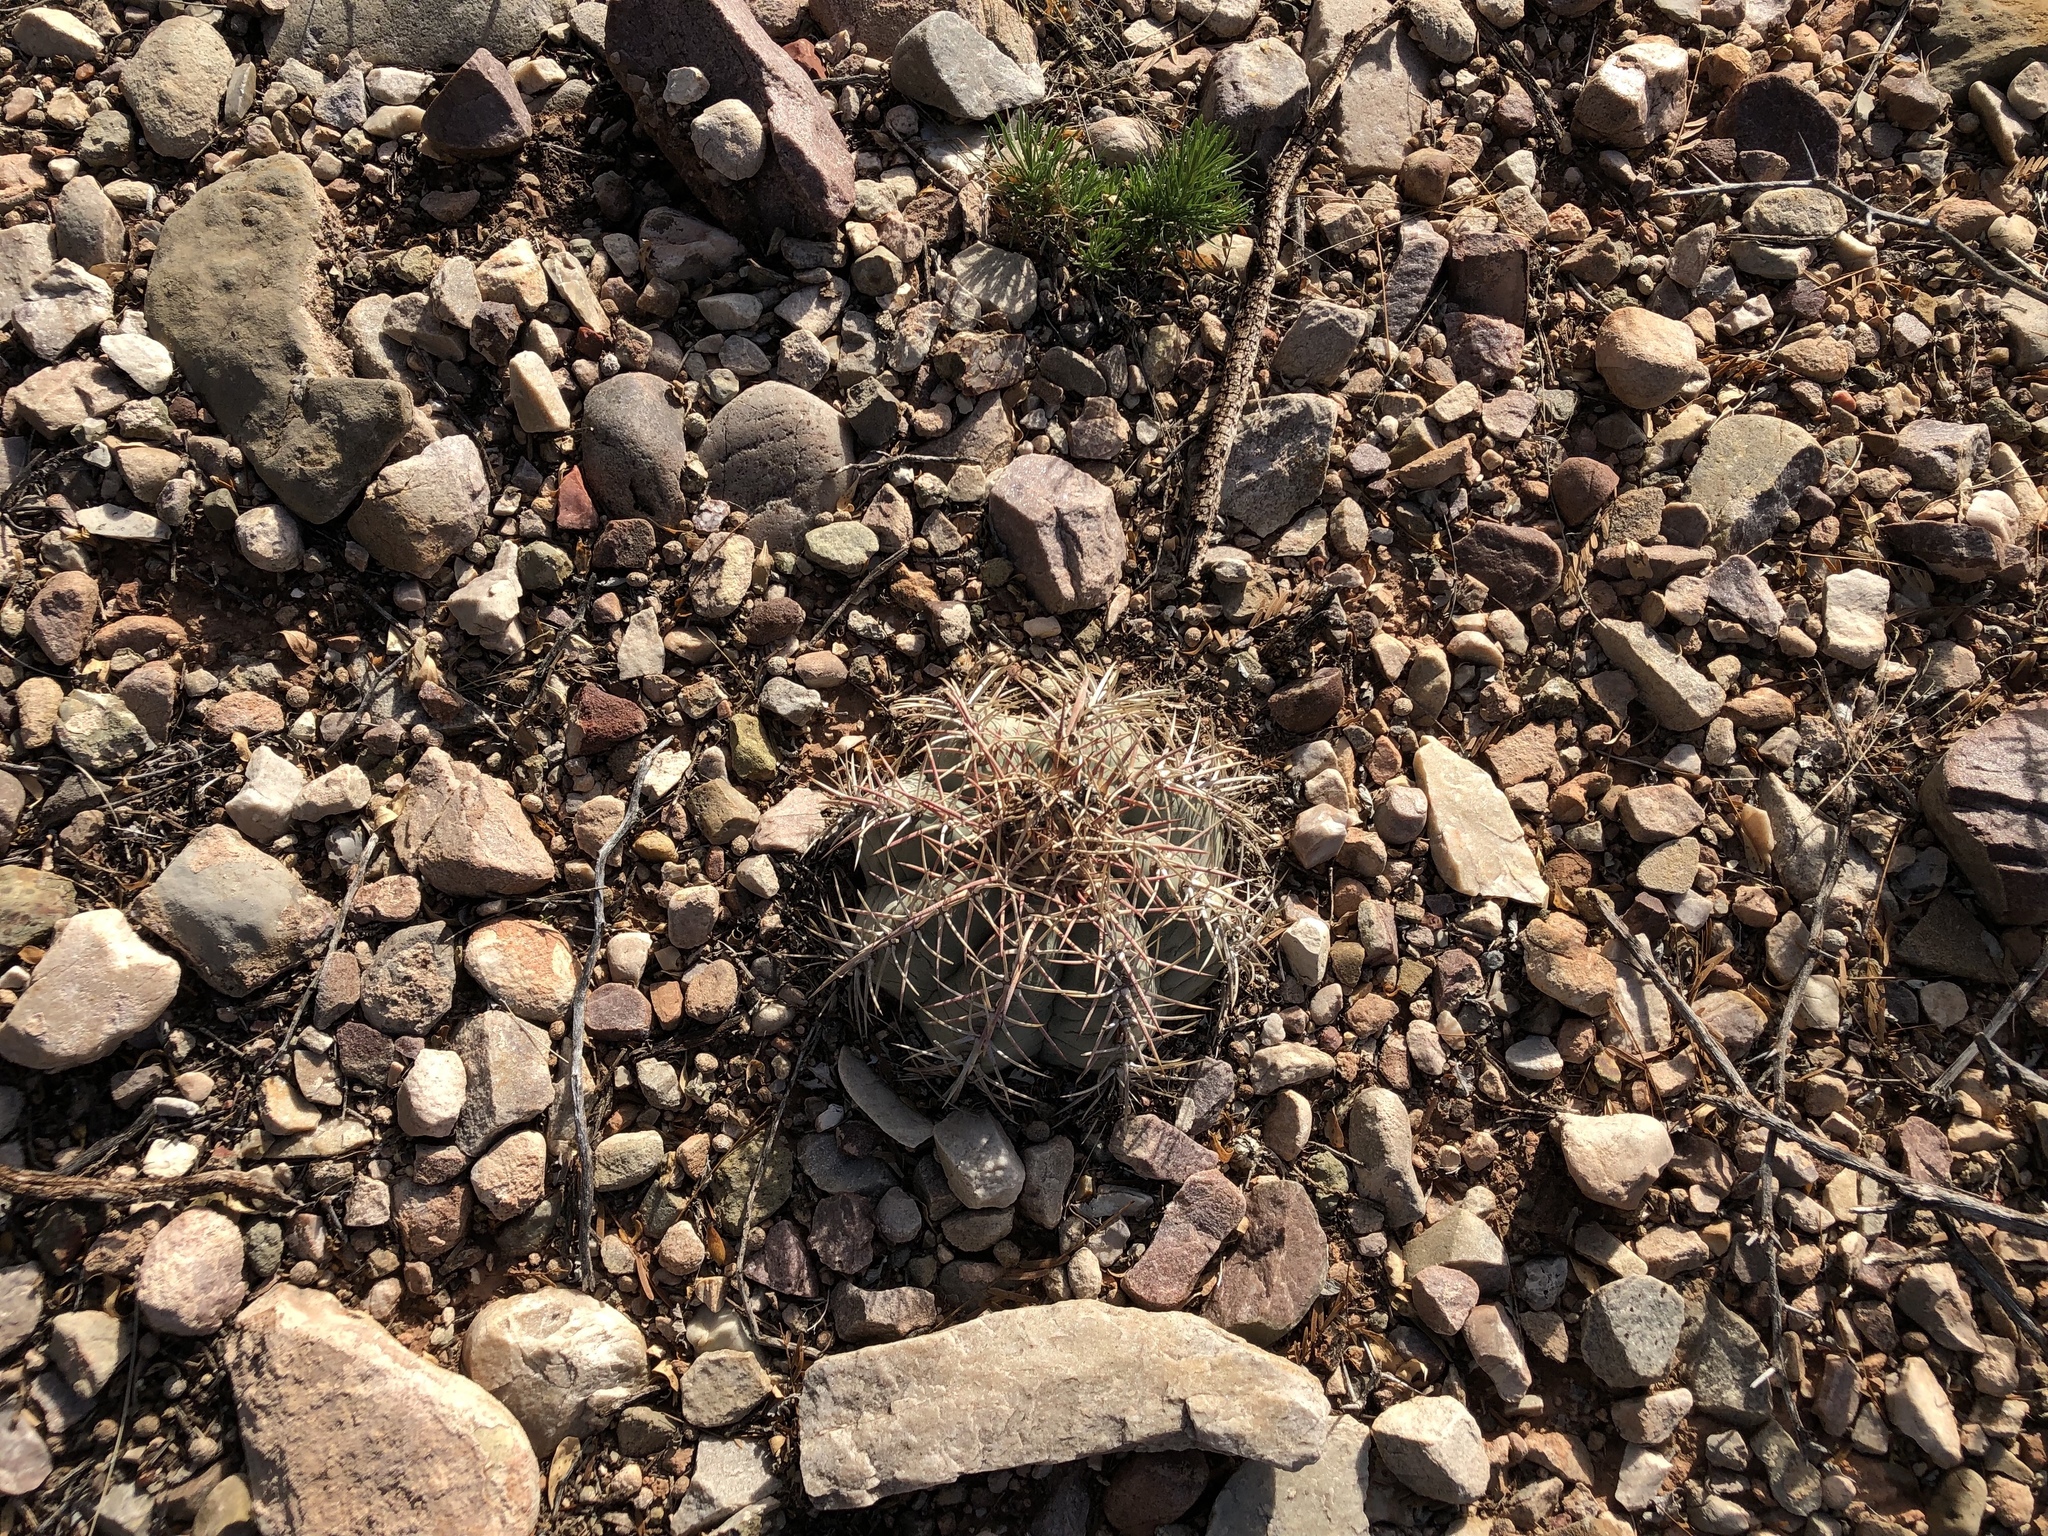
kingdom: Plantae
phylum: Tracheophyta
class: Magnoliopsida
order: Caryophyllales
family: Cactaceae
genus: Echinocactus
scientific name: Echinocactus horizonthalonius
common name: Devilshead
